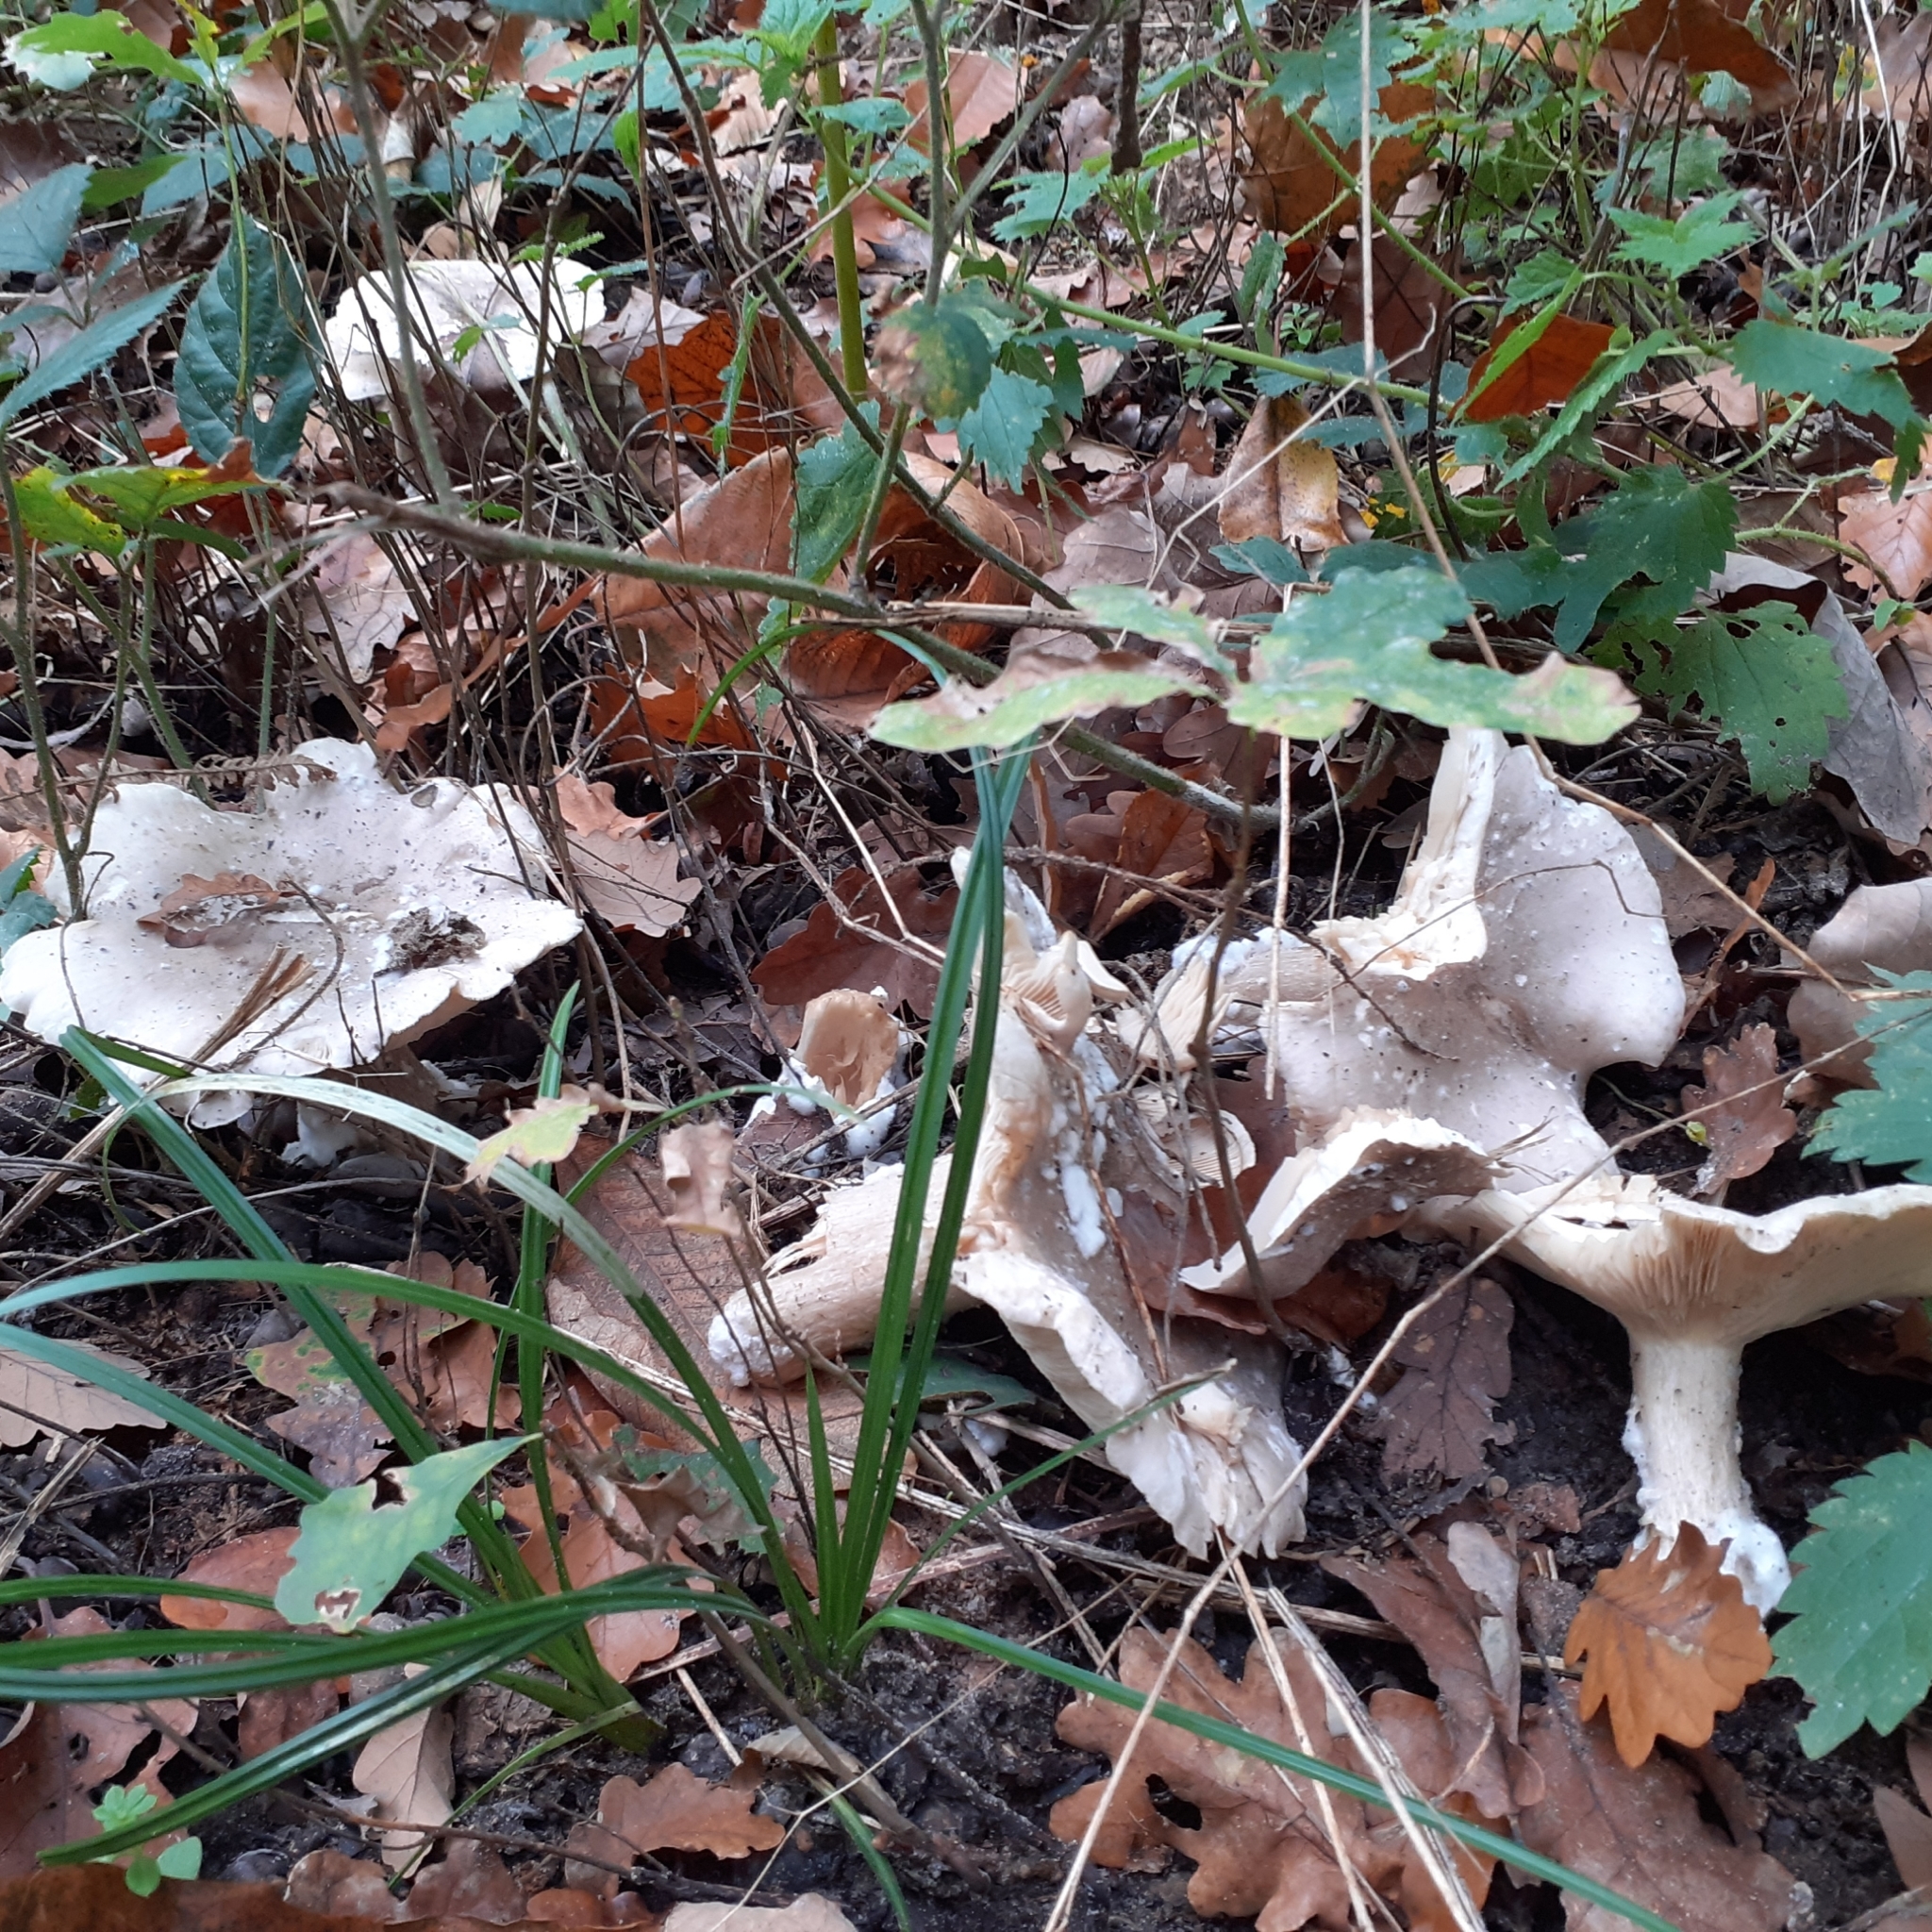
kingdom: Fungi
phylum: Basidiomycota
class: Agaricomycetes
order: Agaricales
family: Tricholomataceae
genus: Clitocybe
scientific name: Clitocybe nebularis
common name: Clouded agaric
